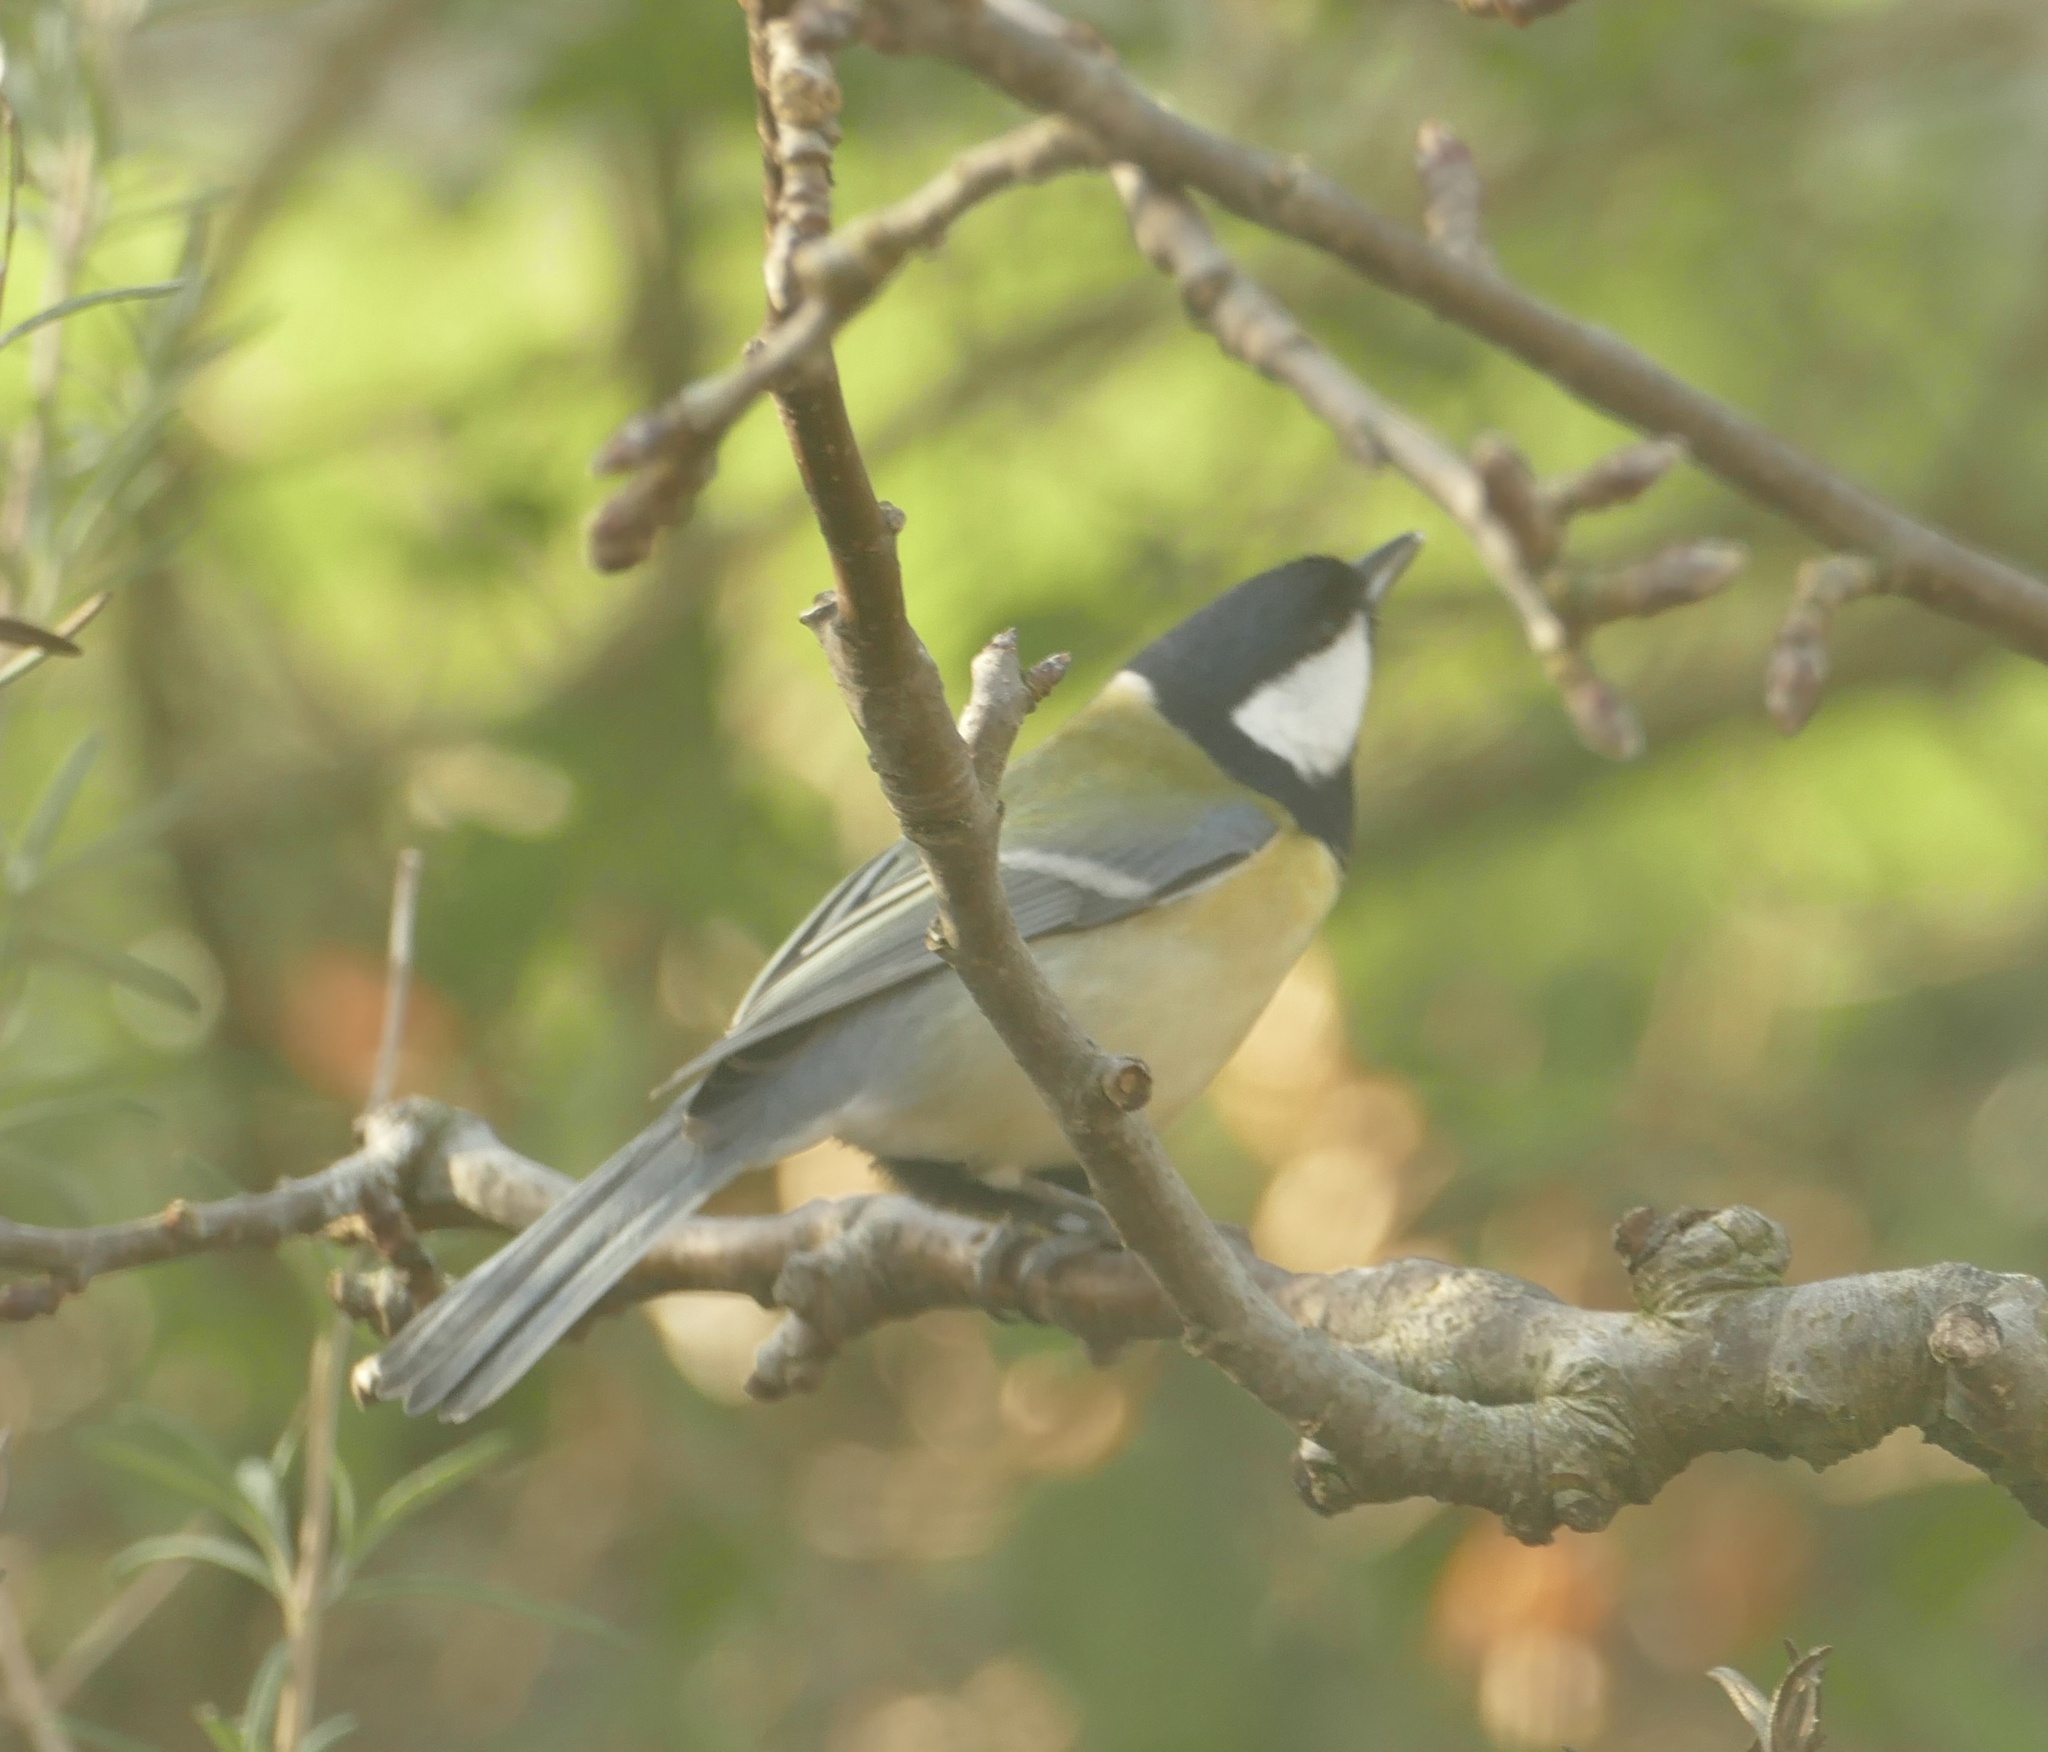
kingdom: Animalia
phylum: Chordata
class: Aves
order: Passeriformes
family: Paridae
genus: Parus
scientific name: Parus major
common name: Great tit
